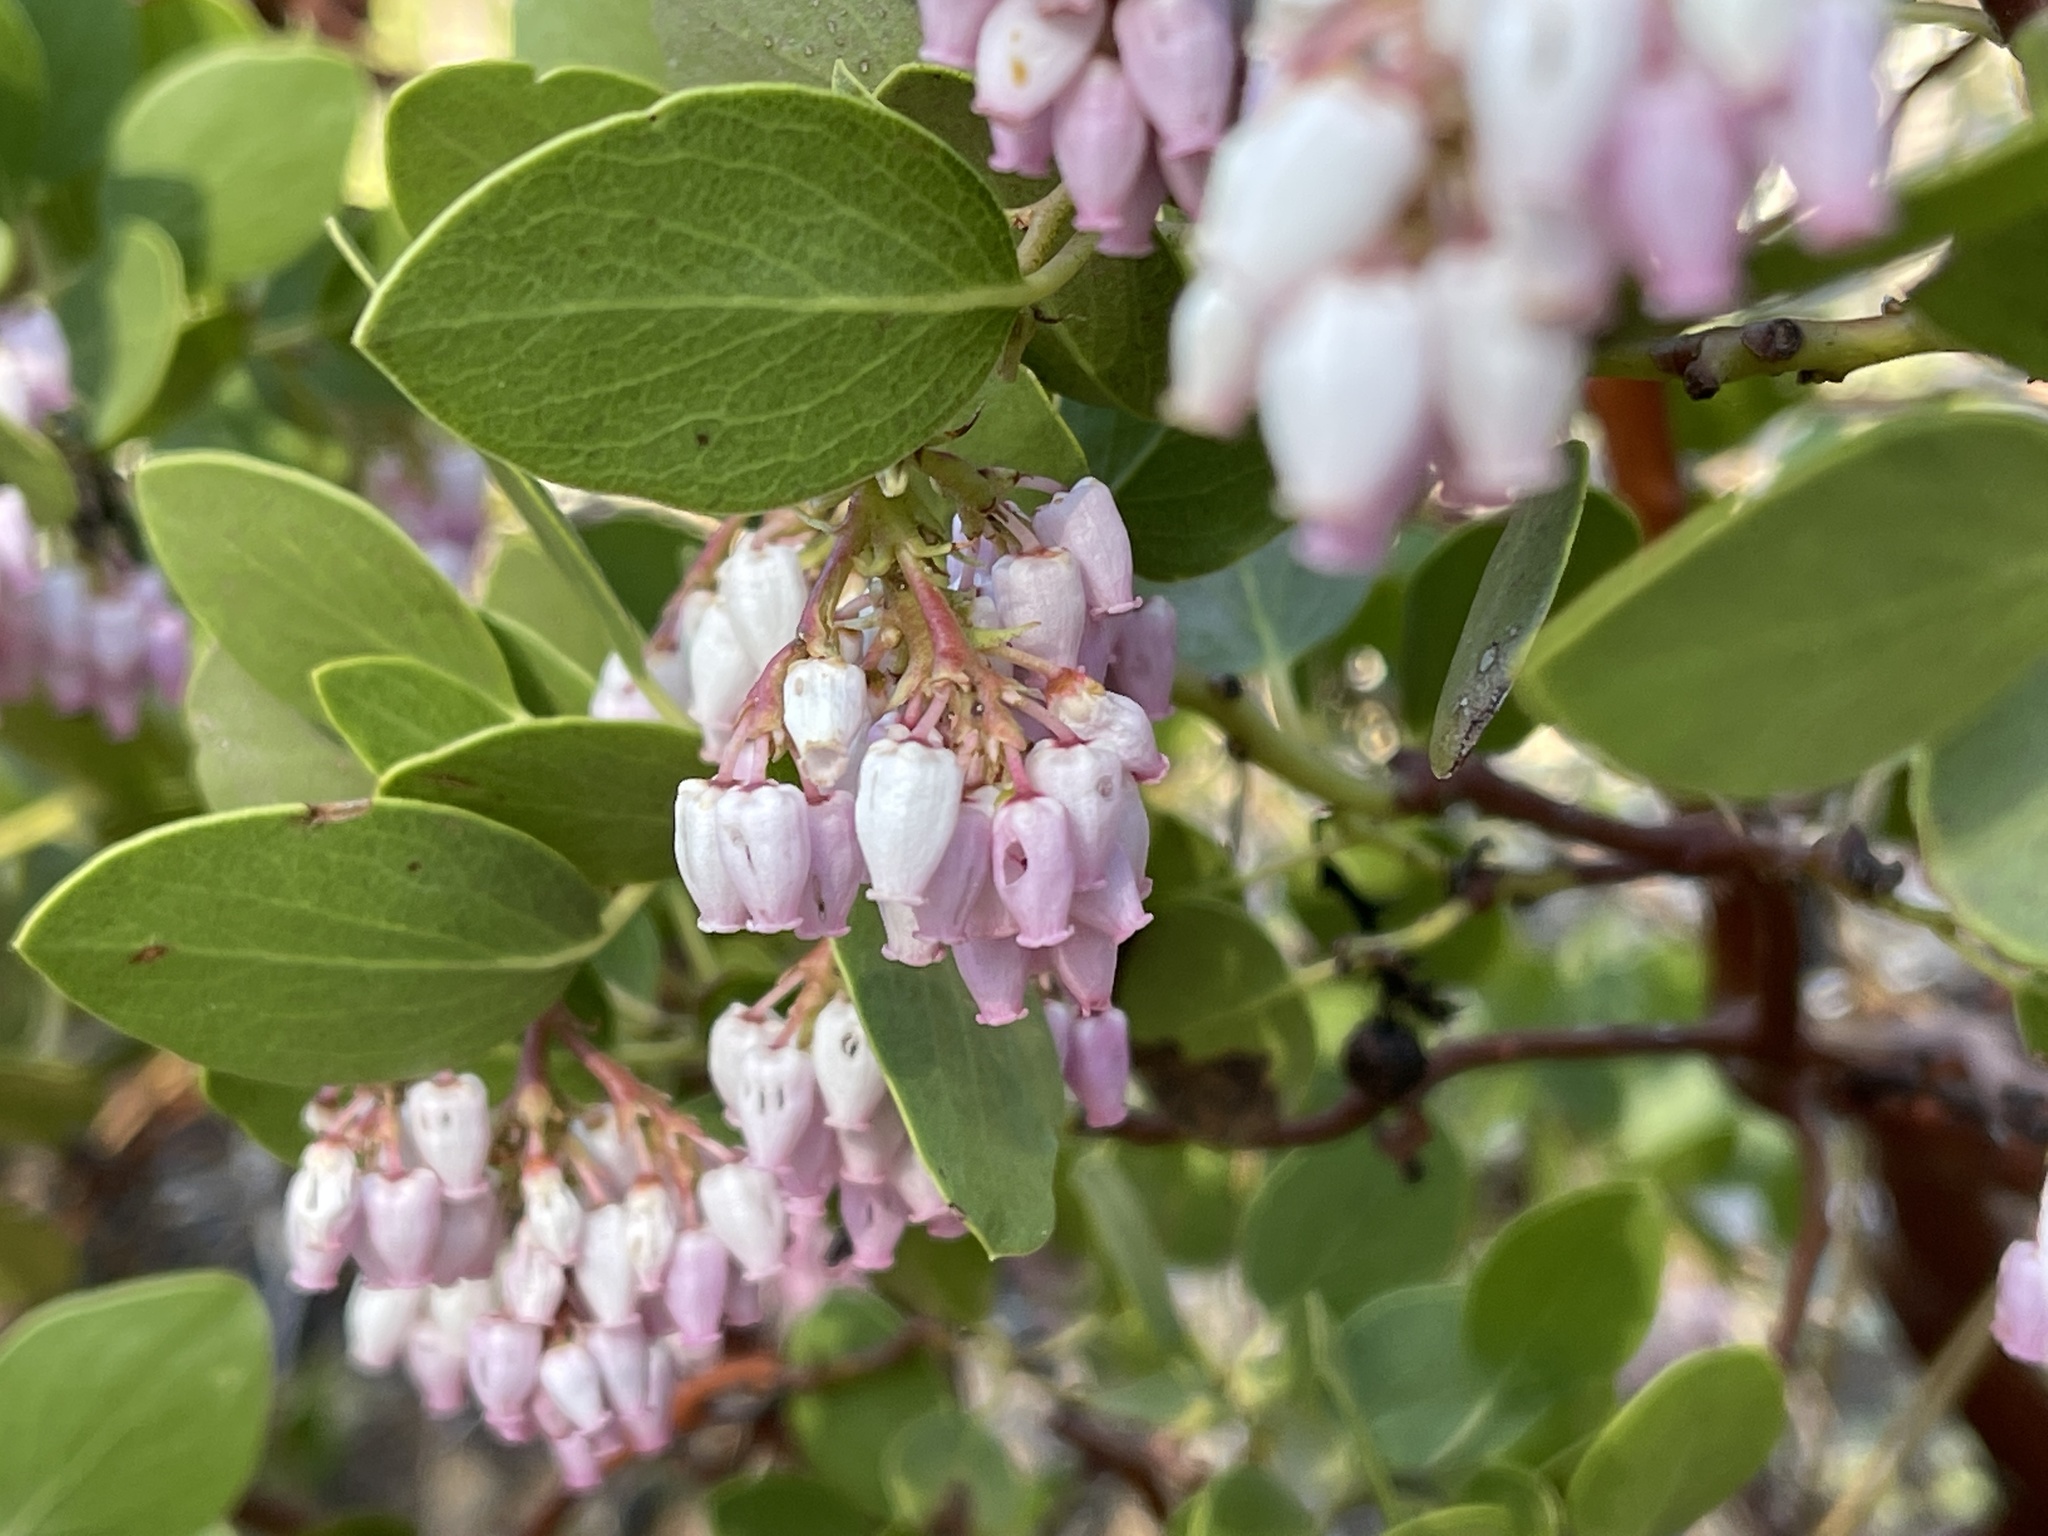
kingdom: Plantae
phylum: Tracheophyta
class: Magnoliopsida
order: Ericales
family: Ericaceae
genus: Arctostaphylos
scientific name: Arctostaphylos patula
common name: Green-leaf manzanita
